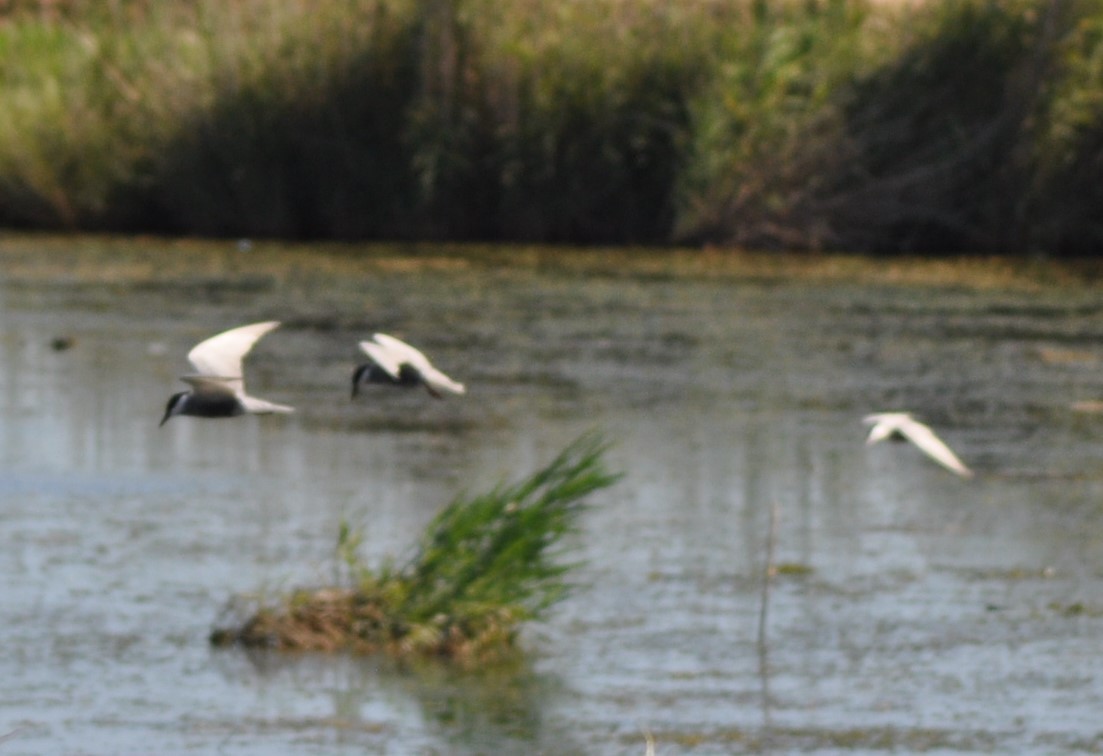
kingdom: Animalia
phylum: Chordata
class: Aves
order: Charadriiformes
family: Laridae
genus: Chlidonias
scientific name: Chlidonias hybrida
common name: Whiskered tern
